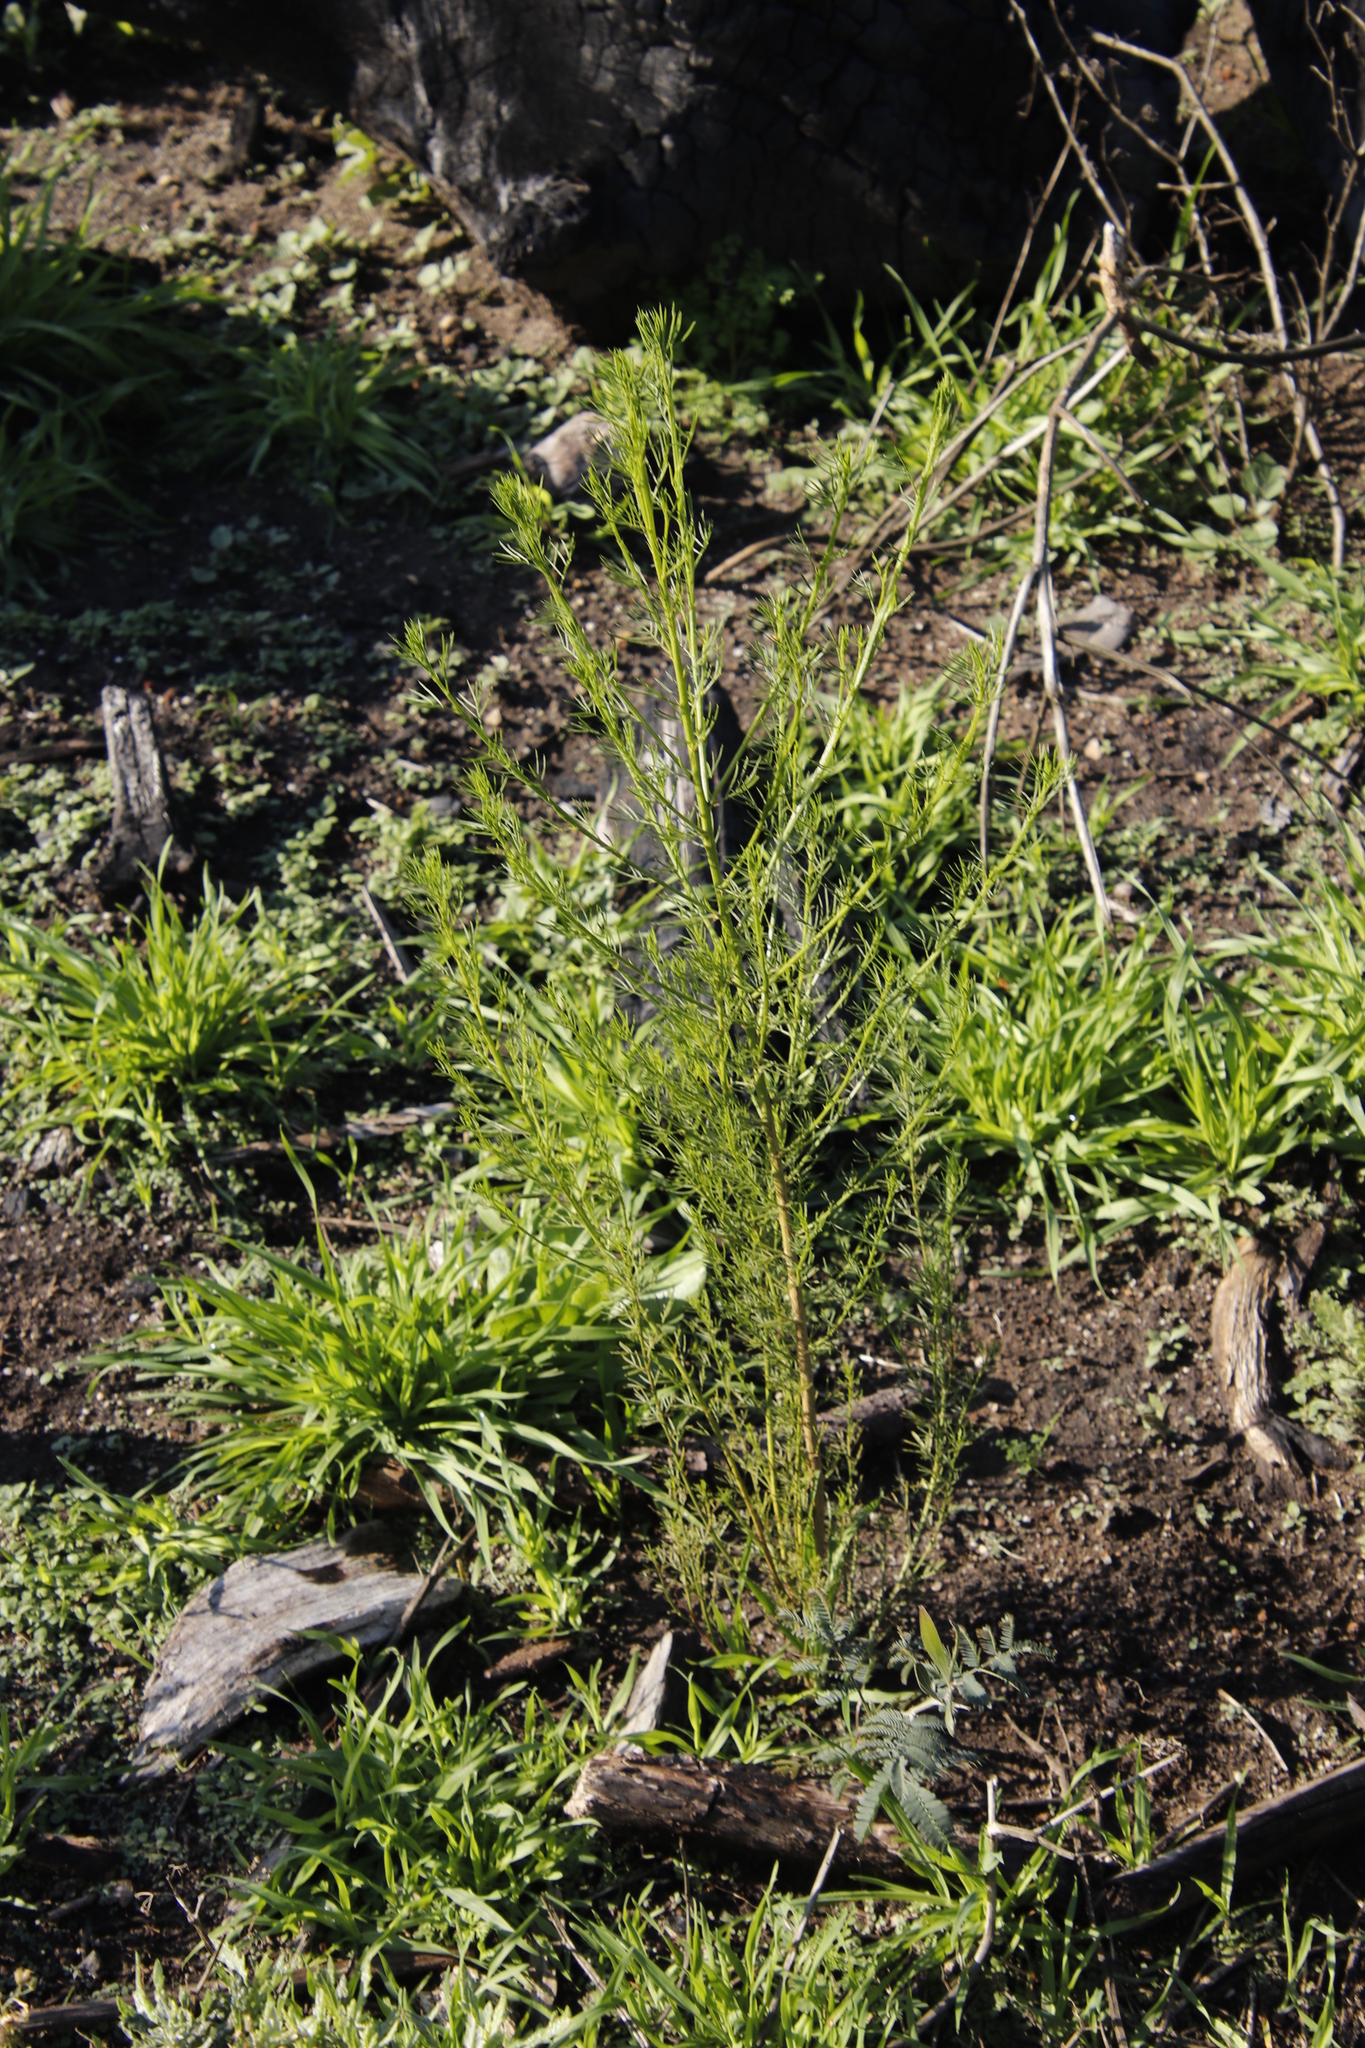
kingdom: Plantae
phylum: Tracheophyta
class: Magnoliopsida
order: Fabales
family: Fabaceae
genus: Psoralea
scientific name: Psoralea pinnata
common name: African scurfpea
